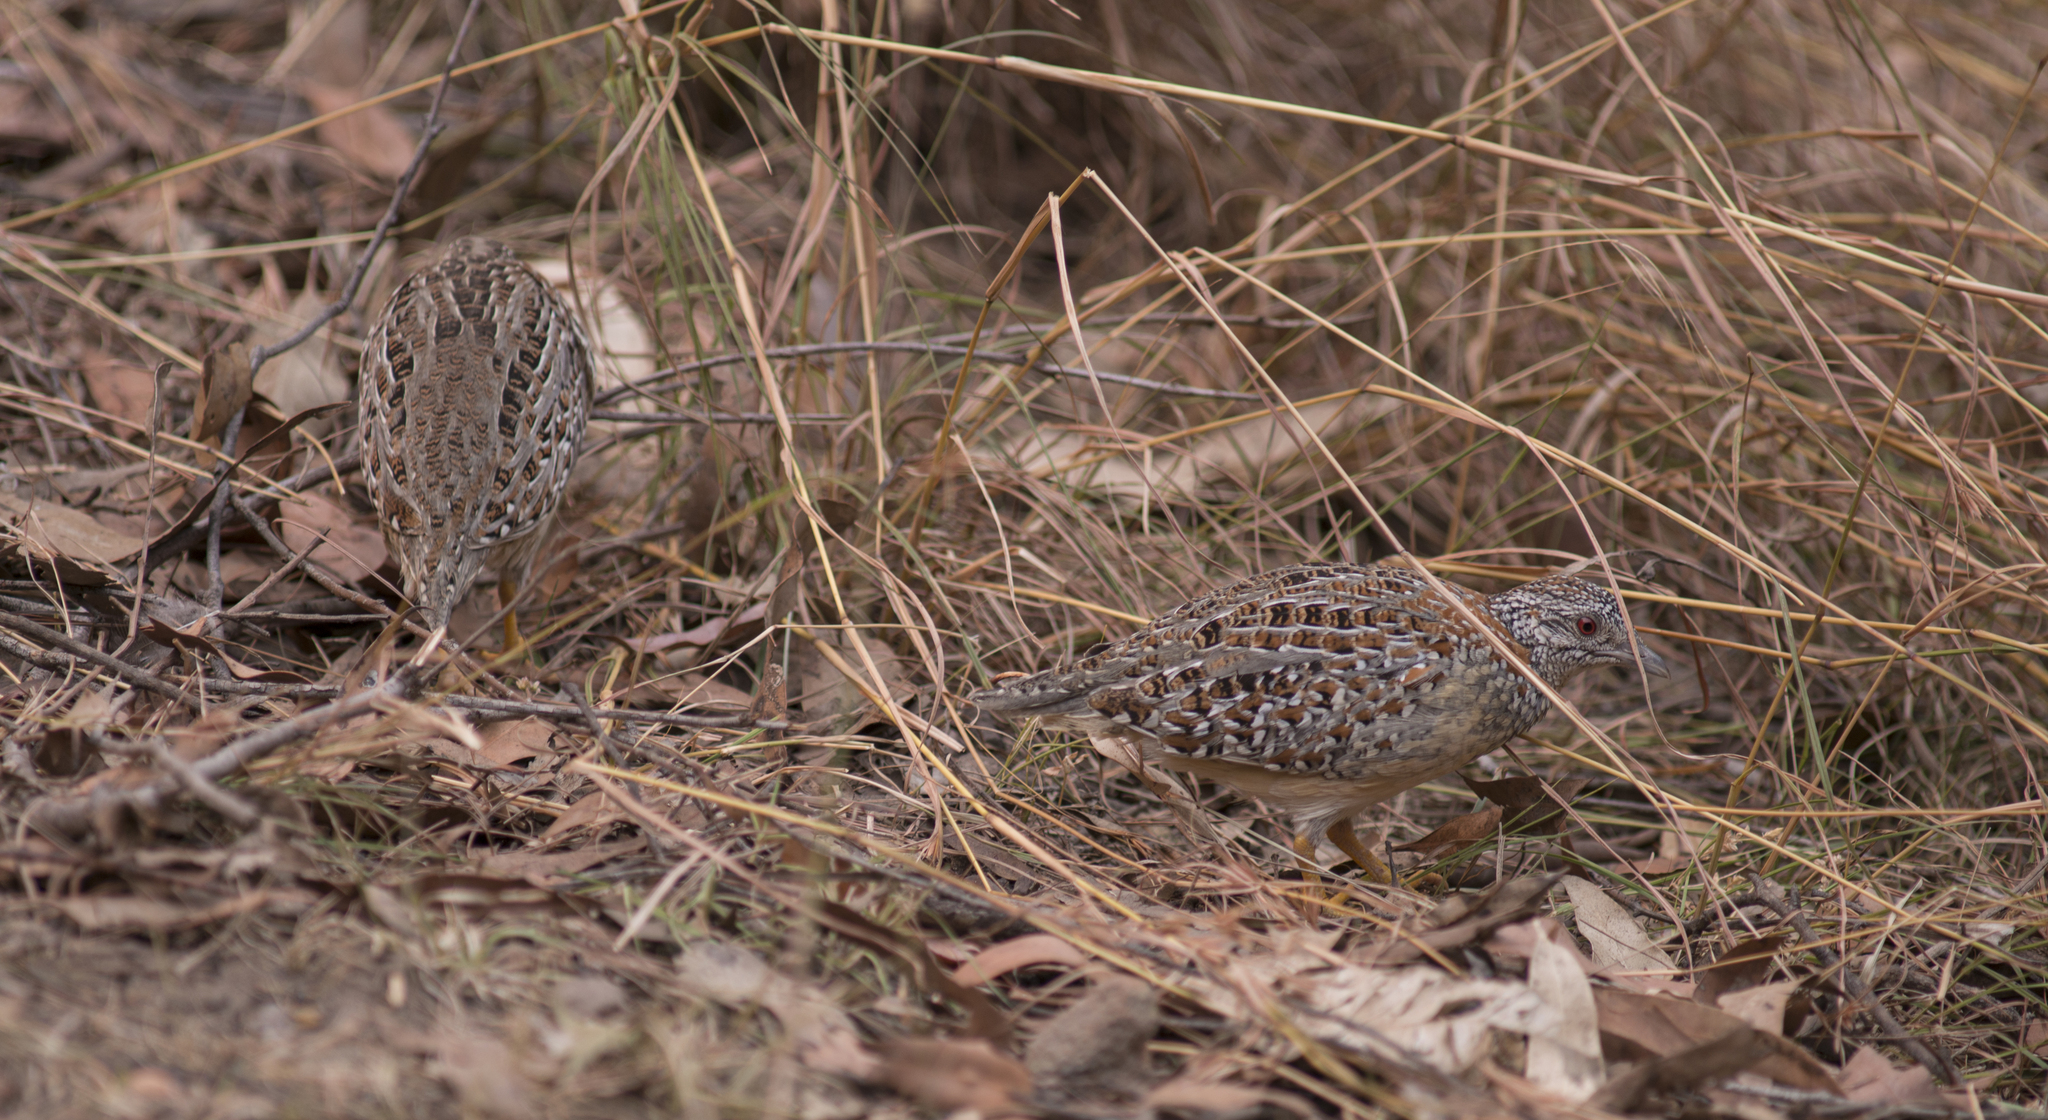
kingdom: Animalia
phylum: Chordata
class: Aves
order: Charadriiformes
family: Turnicidae
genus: Turnix
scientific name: Turnix varius
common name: Painted buttonquail
